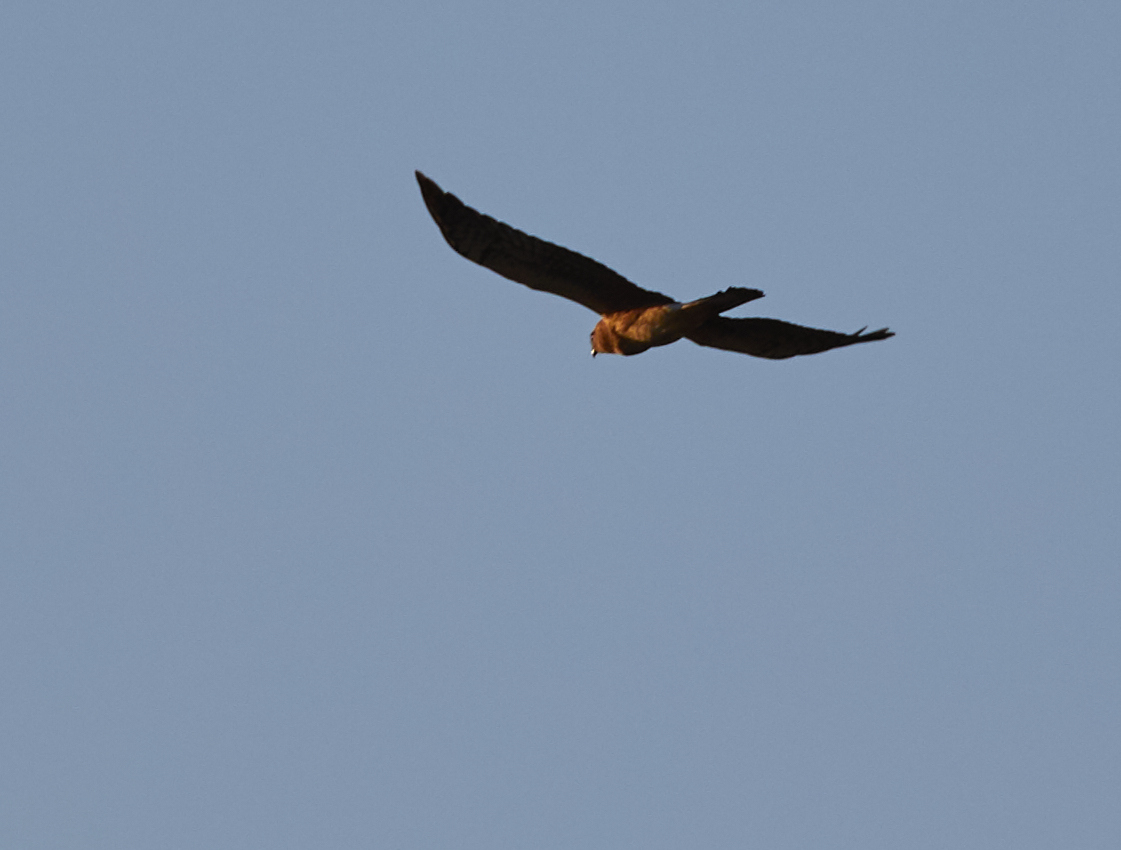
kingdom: Animalia
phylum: Chordata
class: Aves
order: Accipitriformes
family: Accipitridae
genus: Circus
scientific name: Circus cyaneus
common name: Hen harrier
